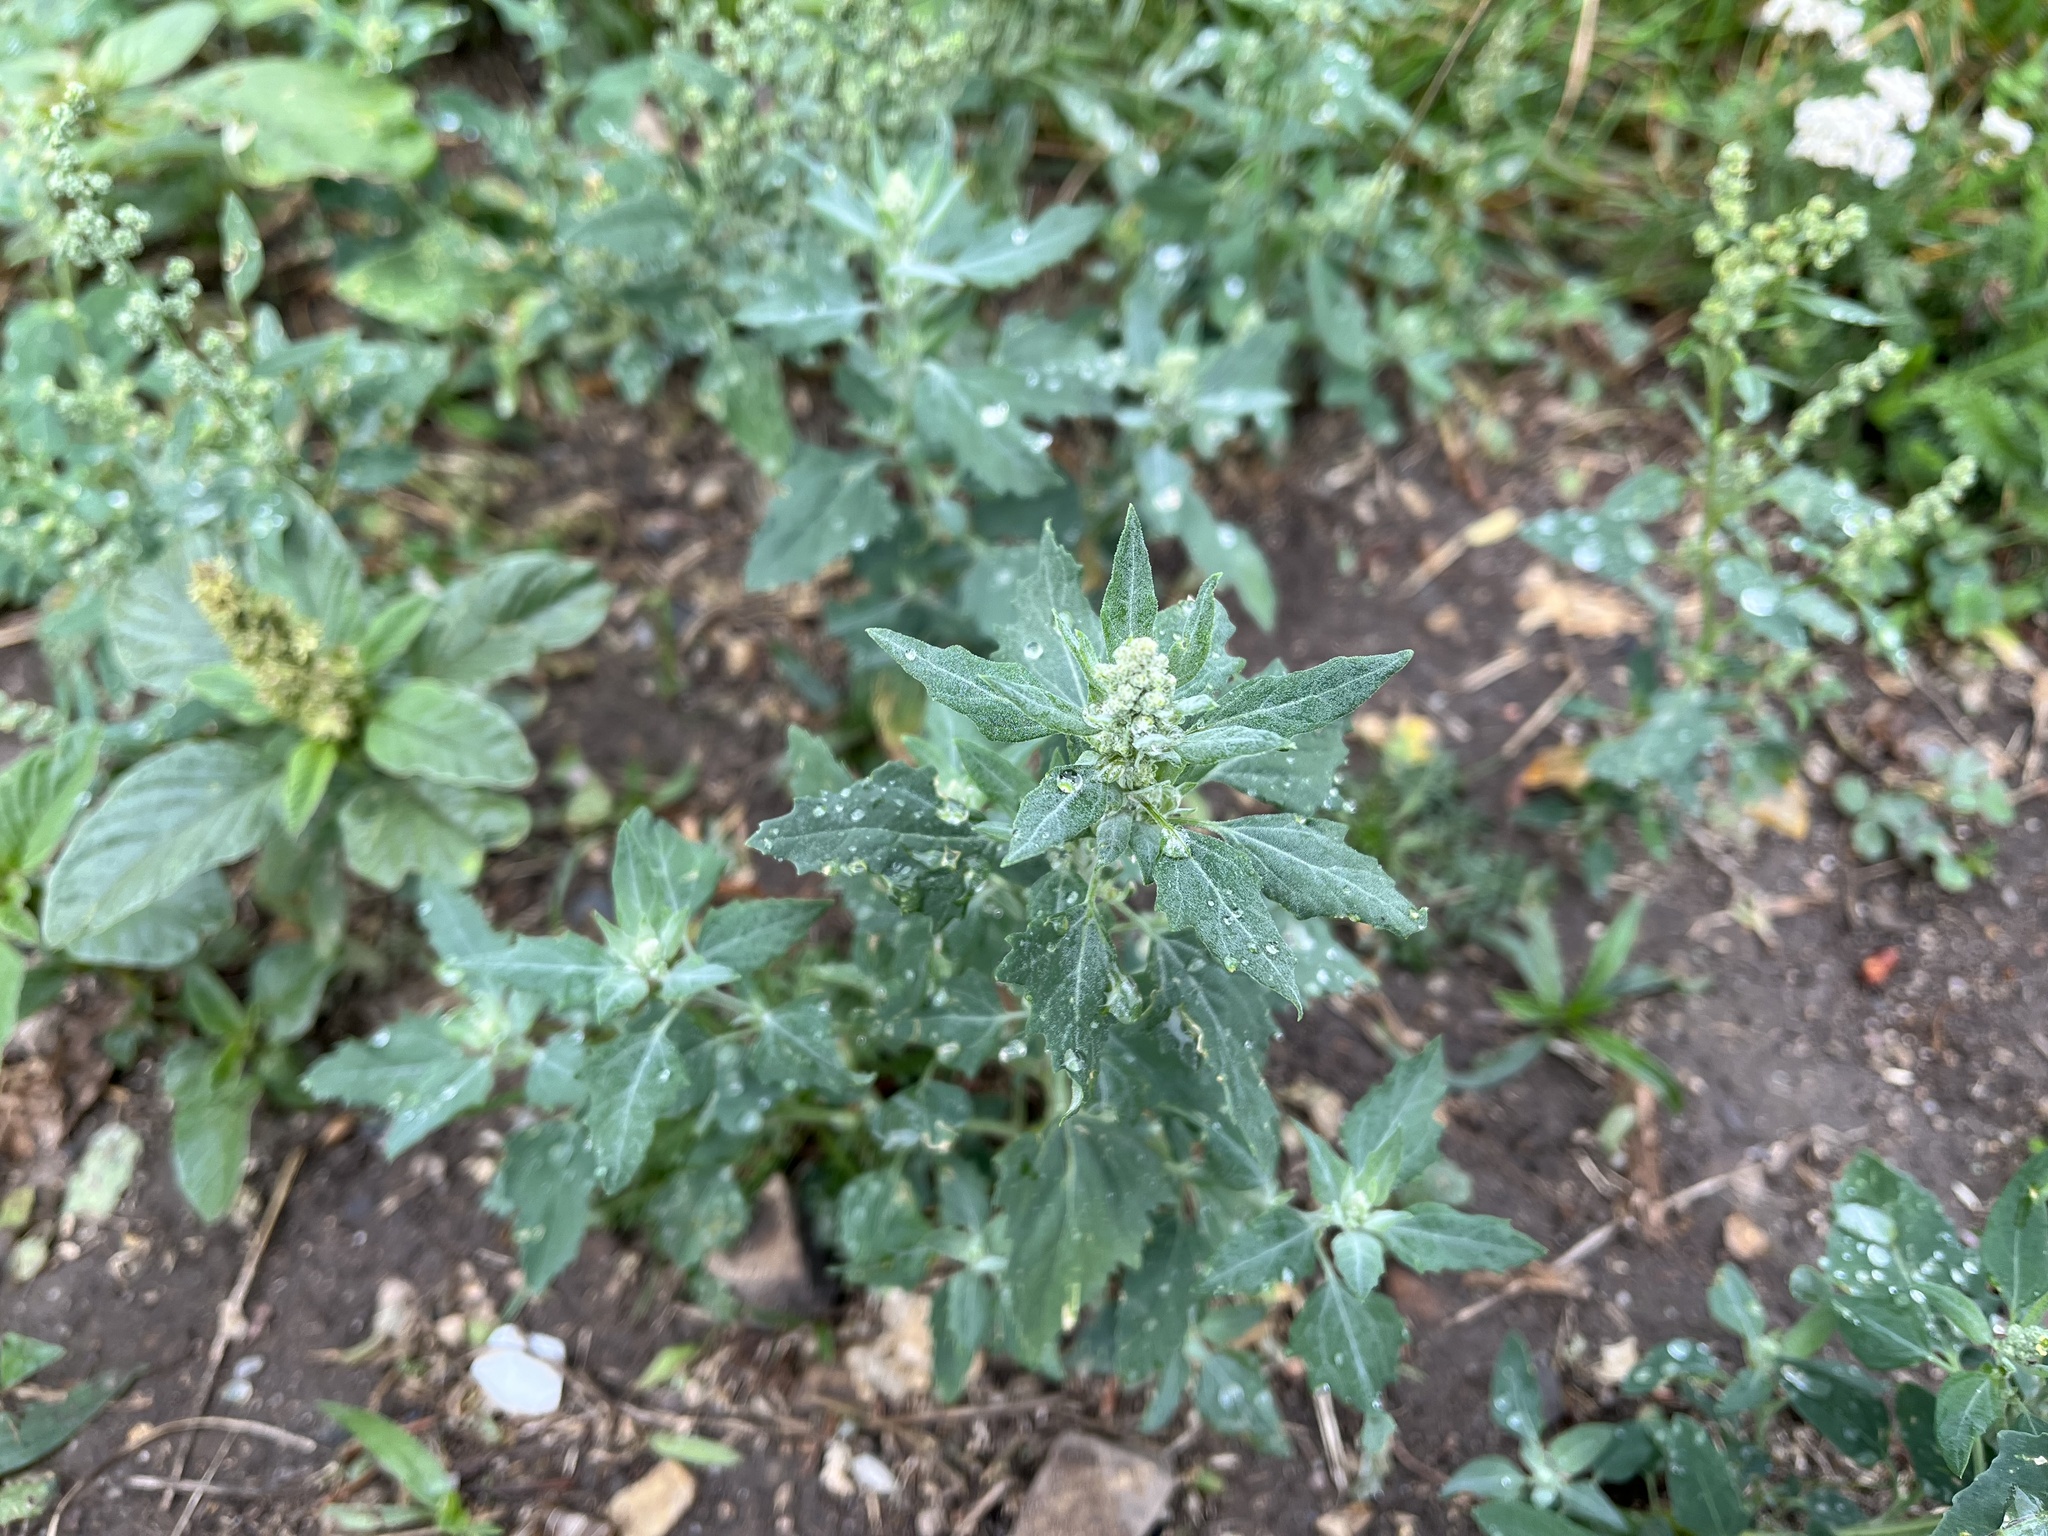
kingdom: Plantae
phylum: Tracheophyta
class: Magnoliopsida
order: Caryophyllales
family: Amaranthaceae
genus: Chenopodium
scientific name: Chenopodium album
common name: Fat-hen
